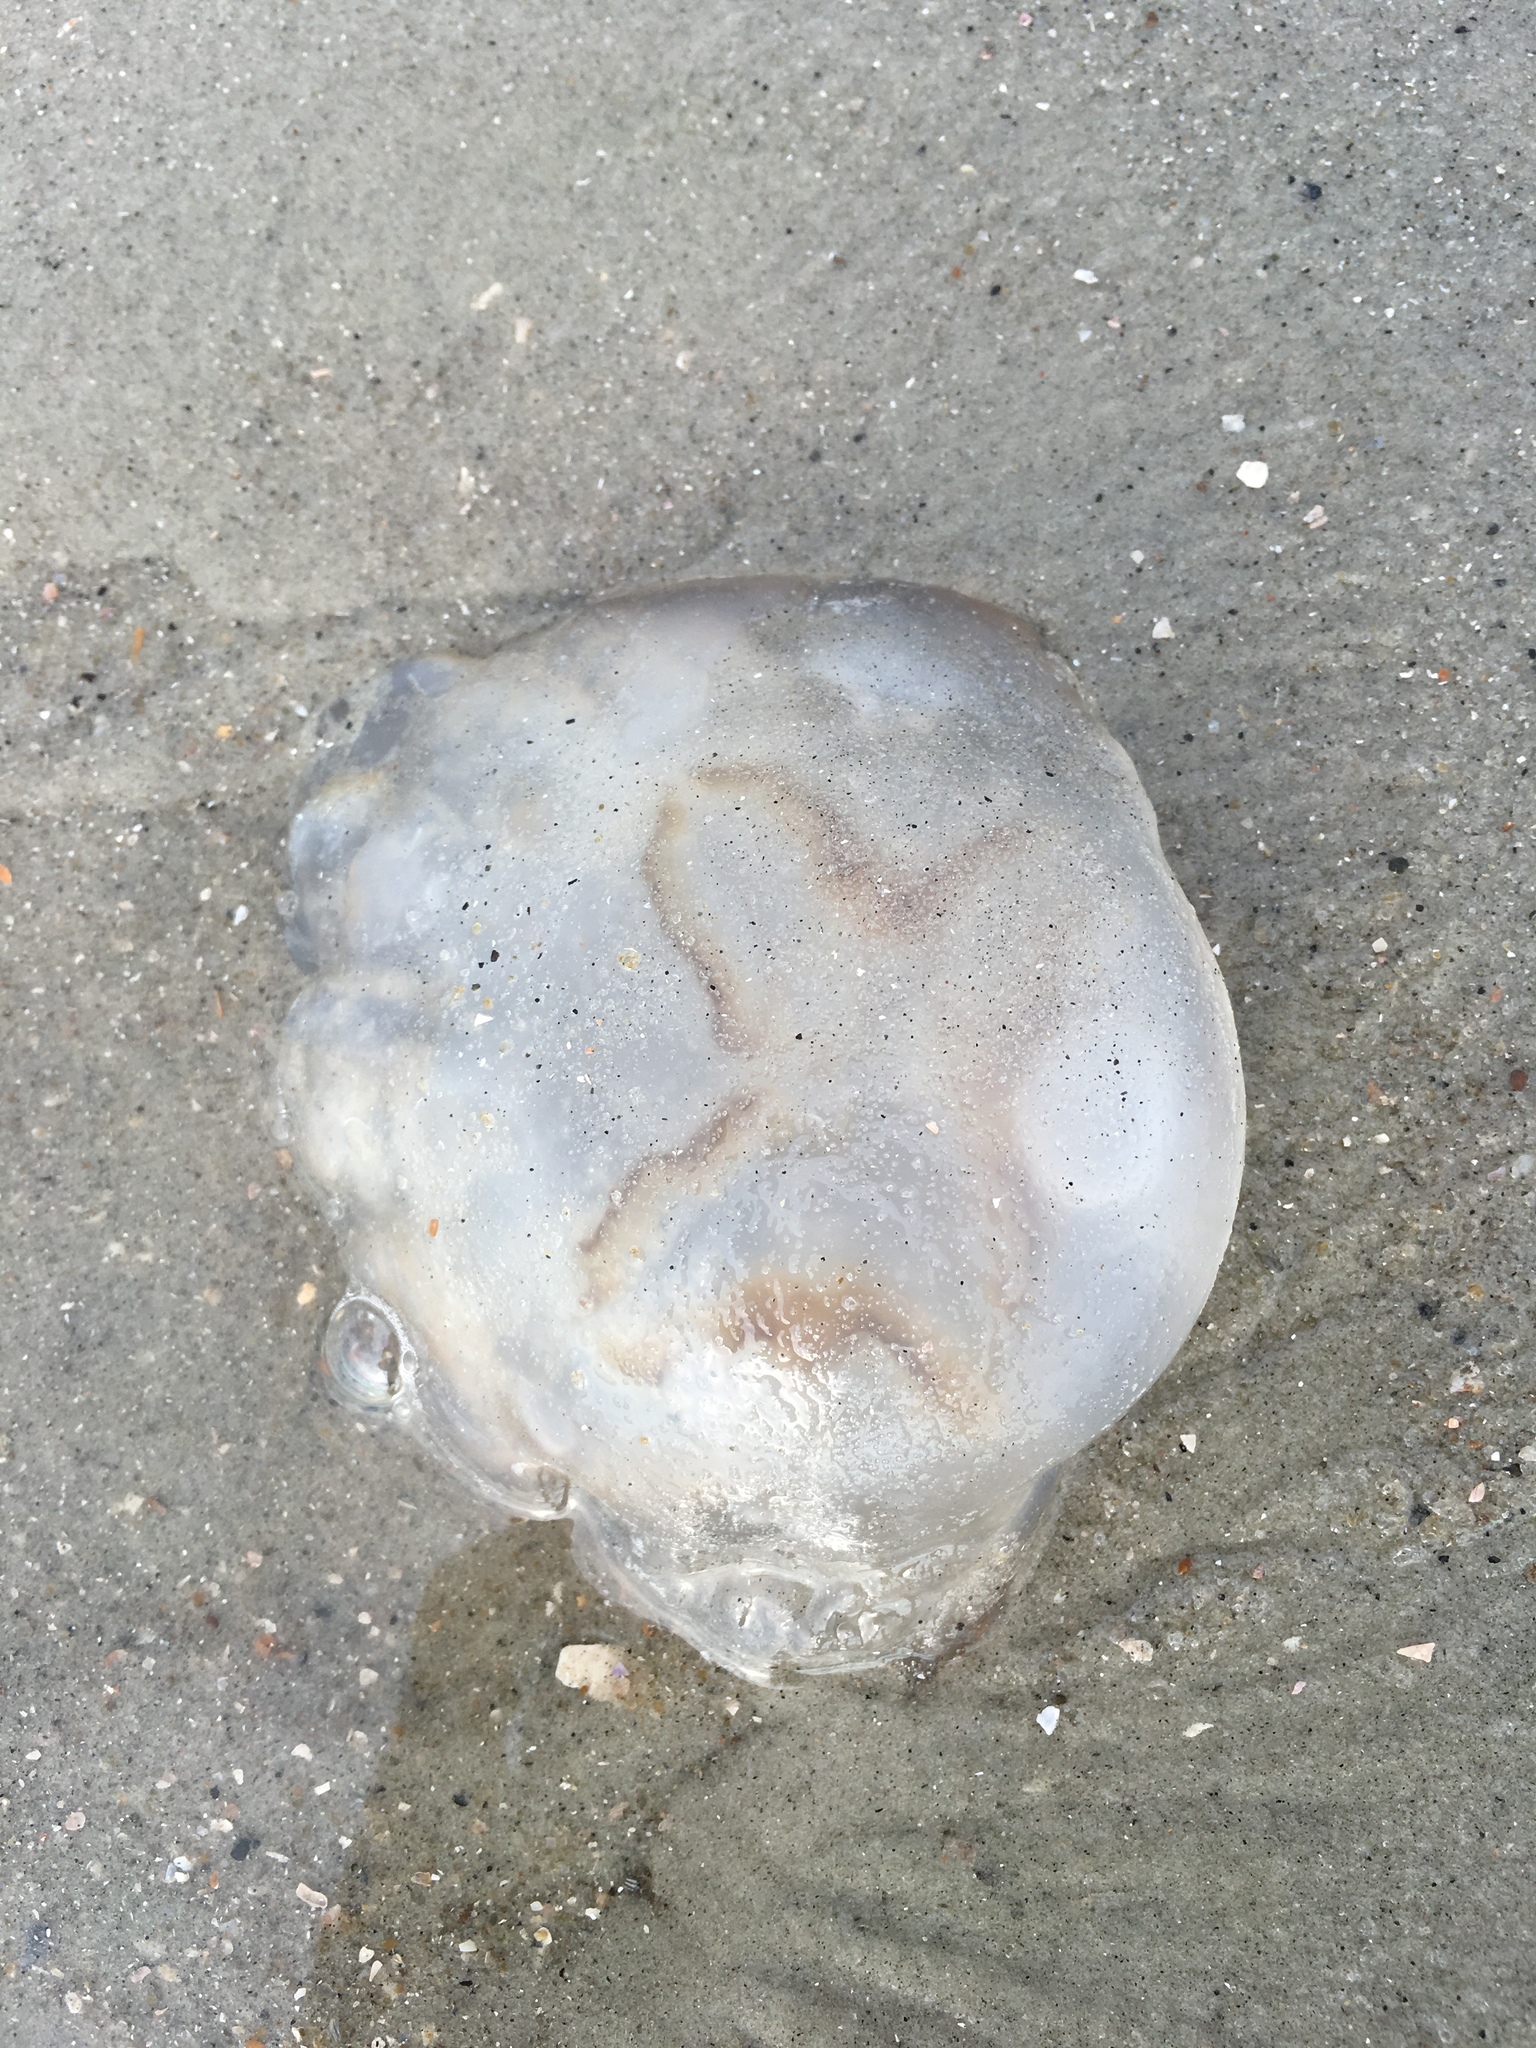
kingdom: Animalia
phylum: Cnidaria
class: Scyphozoa
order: Rhizostomeae
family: Stomolophidae
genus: Stomolophus
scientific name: Stomolophus meleagris
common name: Cabbagehead
